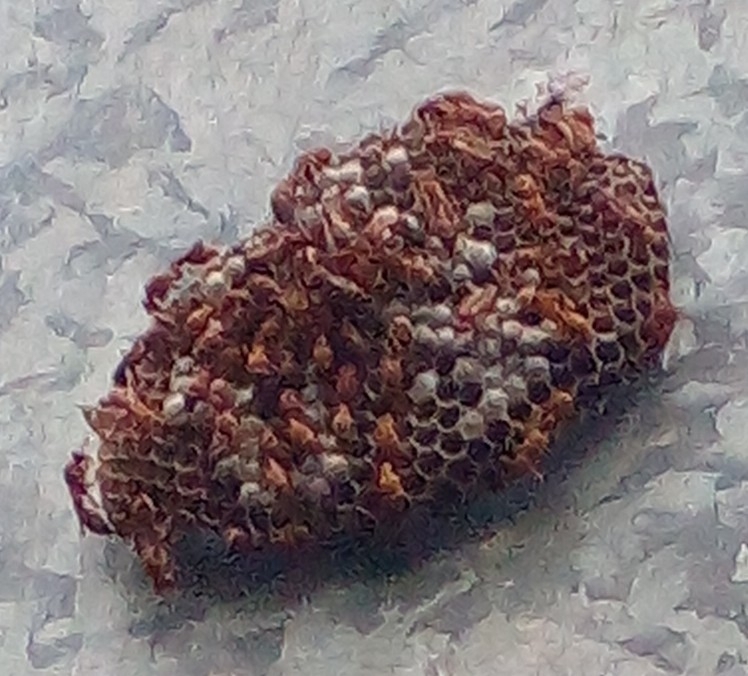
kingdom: Animalia
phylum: Arthropoda
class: Insecta
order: Hymenoptera
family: Vespidae
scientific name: Vespidae
